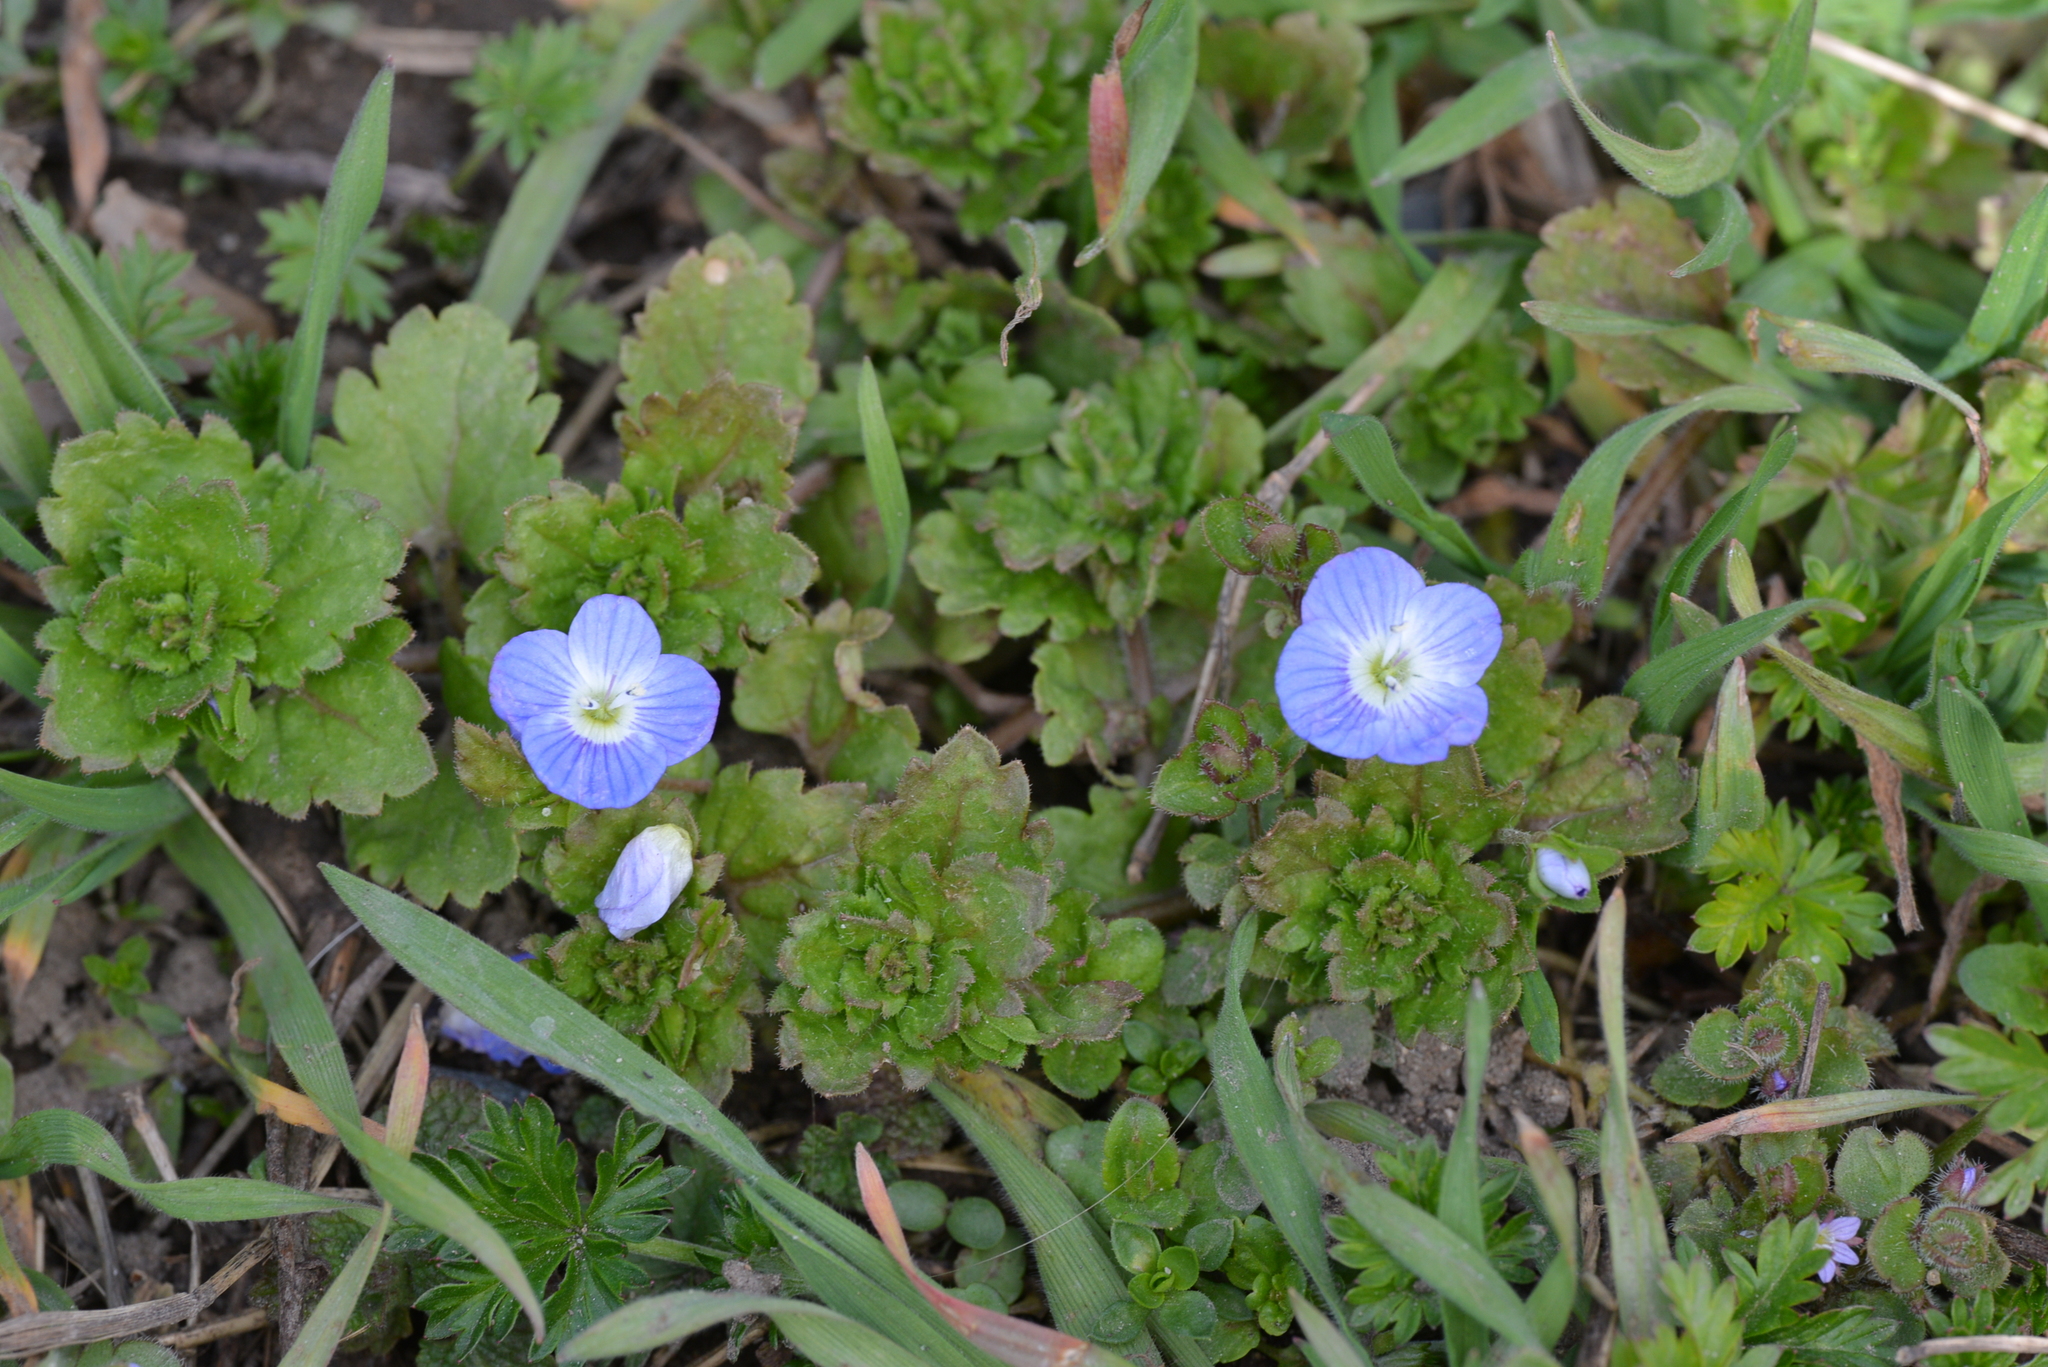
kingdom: Plantae
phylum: Tracheophyta
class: Magnoliopsida
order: Lamiales
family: Plantaginaceae
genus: Veronica
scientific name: Veronica persica
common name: Common field-speedwell
